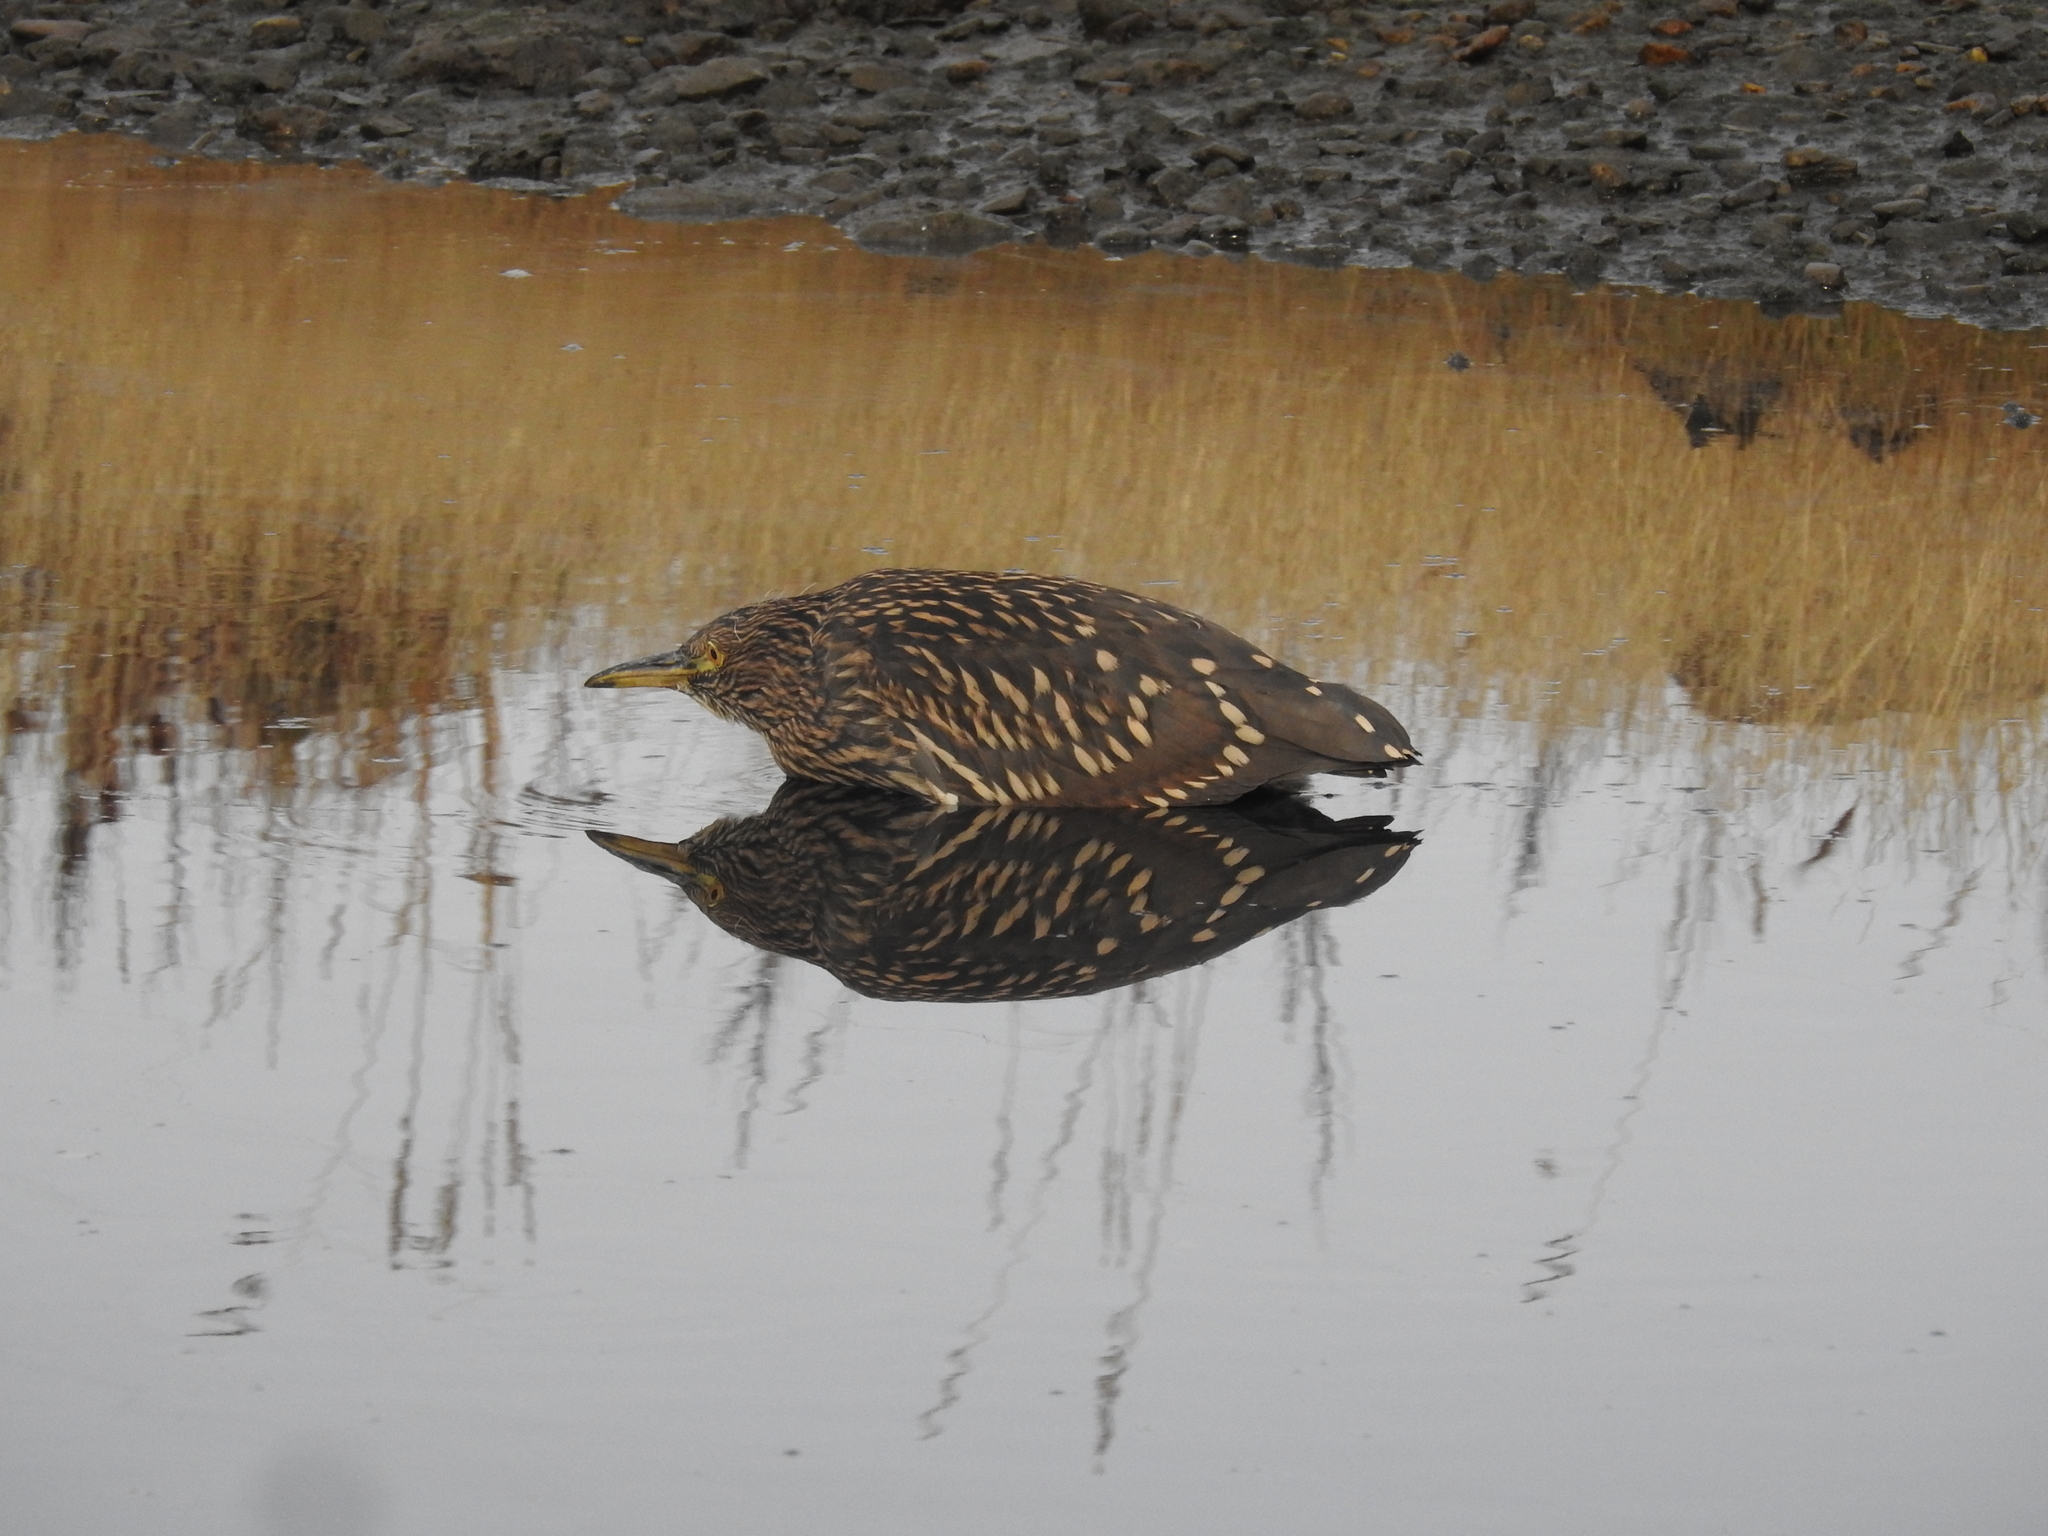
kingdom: Animalia
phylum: Chordata
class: Aves
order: Pelecaniformes
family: Ardeidae
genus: Nycticorax
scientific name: Nycticorax nycticorax
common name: Black-crowned night heron
